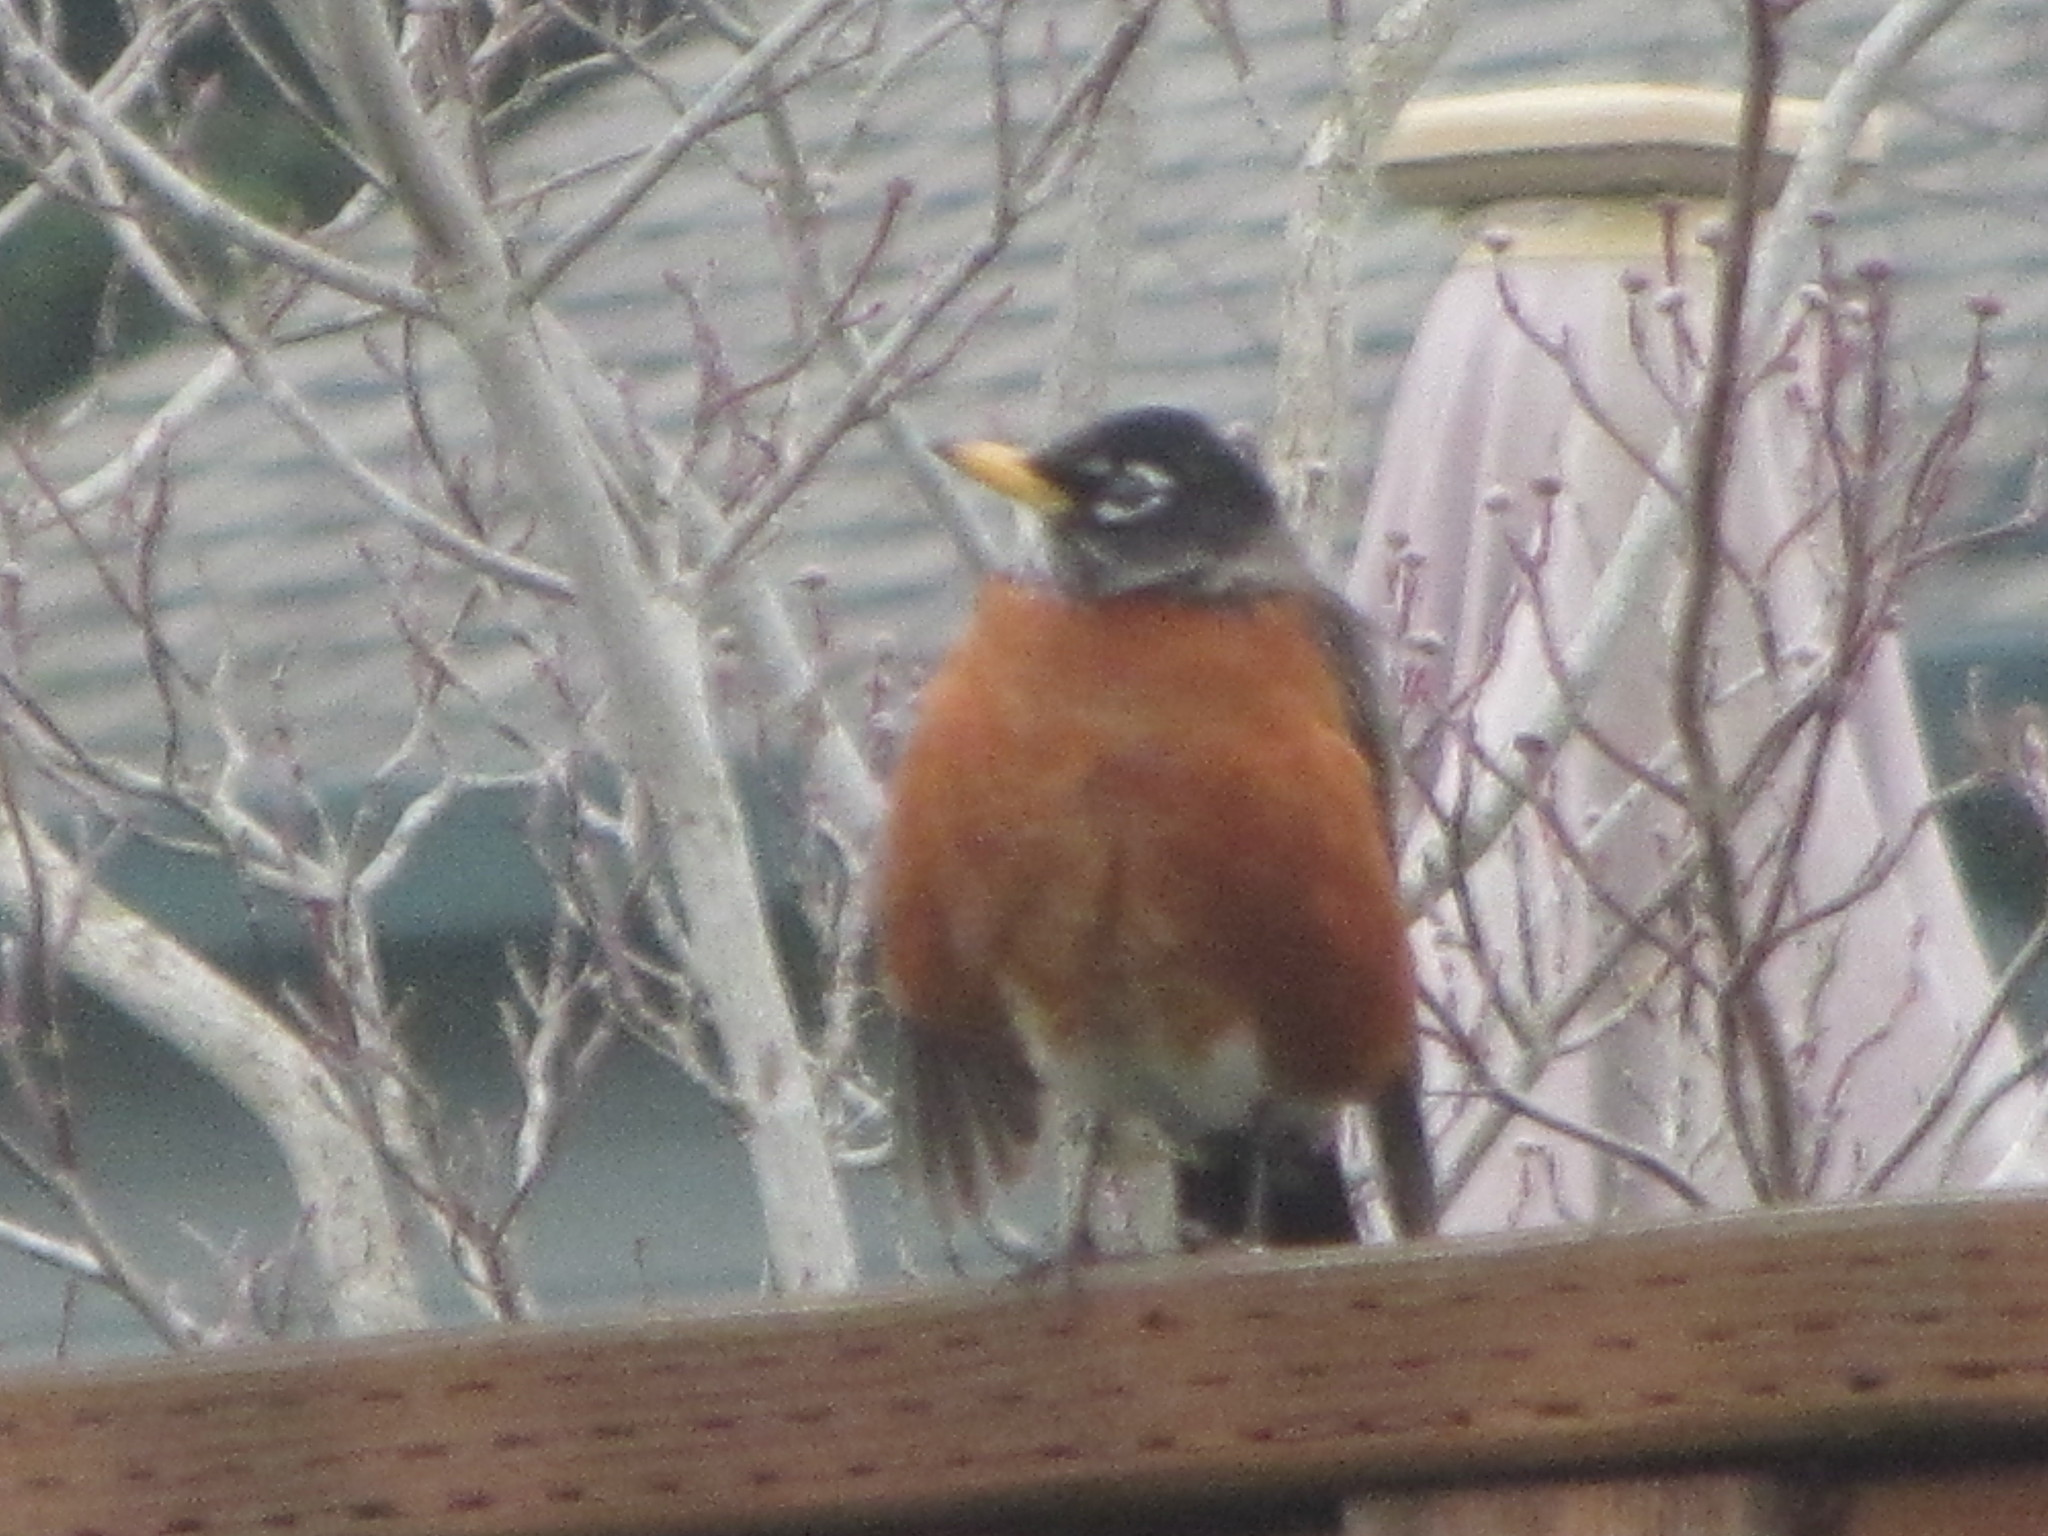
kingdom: Animalia
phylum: Chordata
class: Aves
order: Passeriformes
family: Turdidae
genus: Turdus
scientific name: Turdus migratorius
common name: American robin
